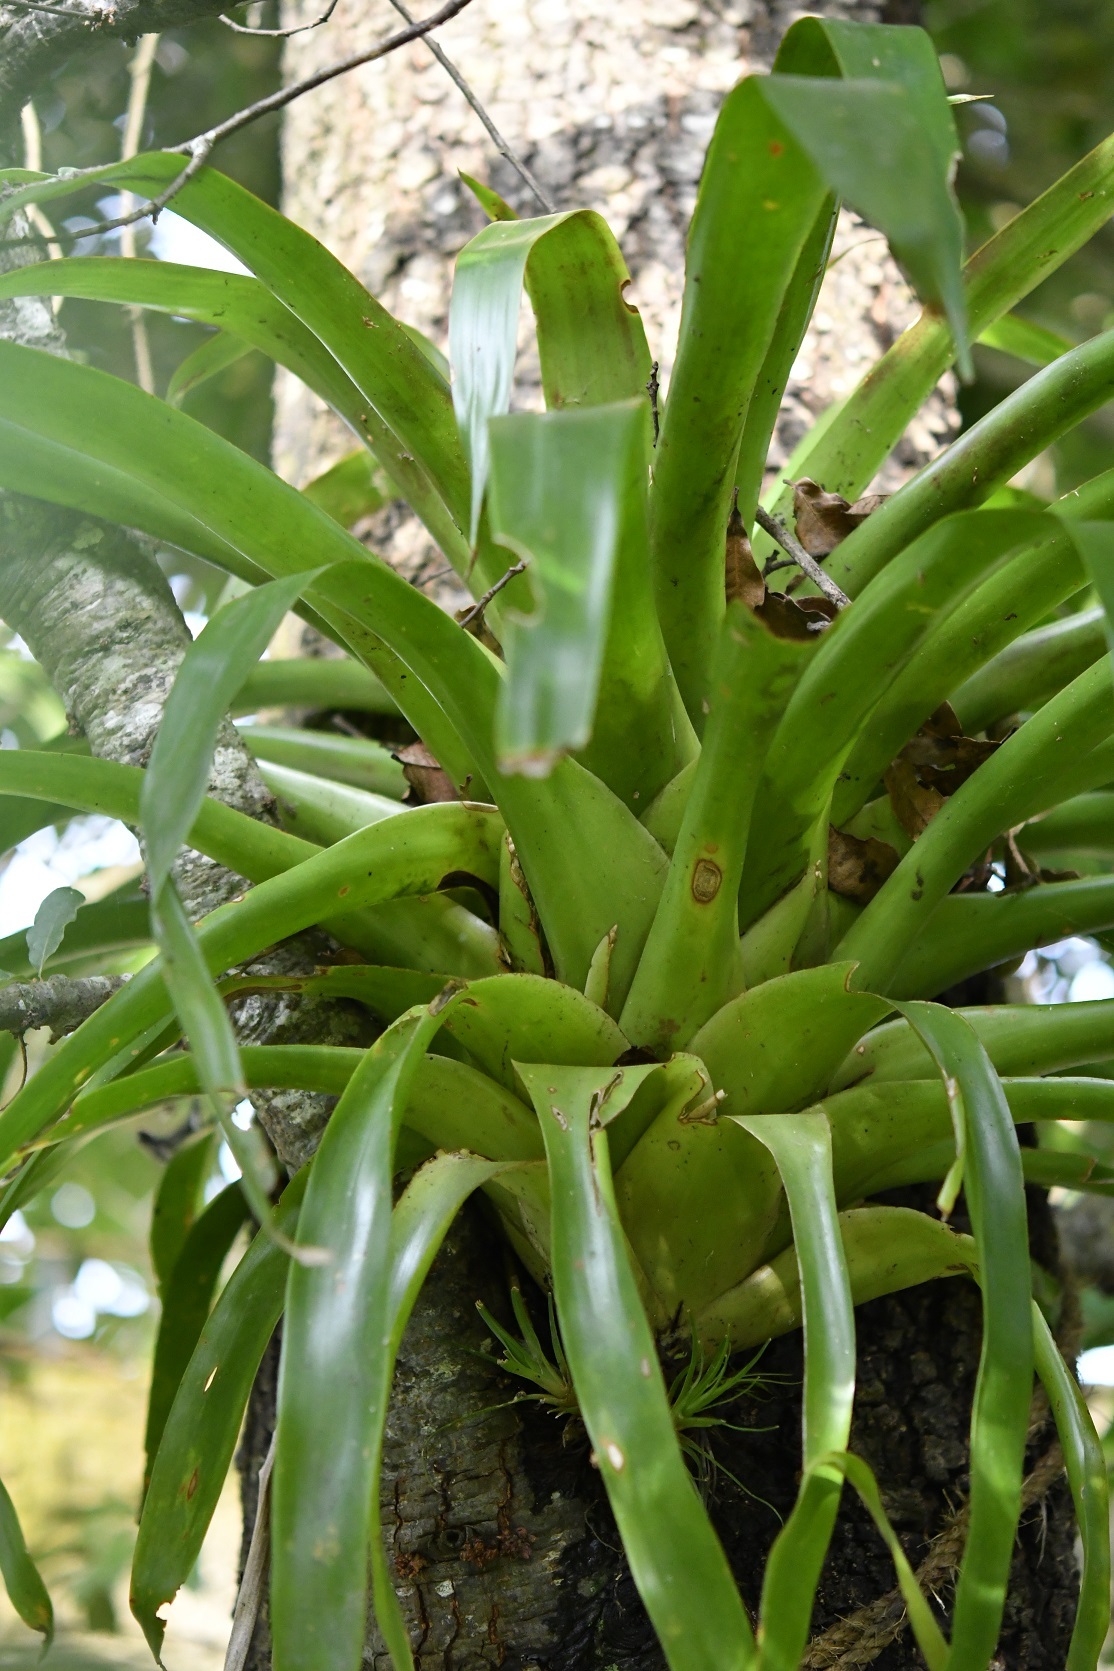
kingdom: Plantae
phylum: Tracheophyta
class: Liliopsida
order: Poales
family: Bromeliaceae
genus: Tillandsia
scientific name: Tillandsia guatemalensis
